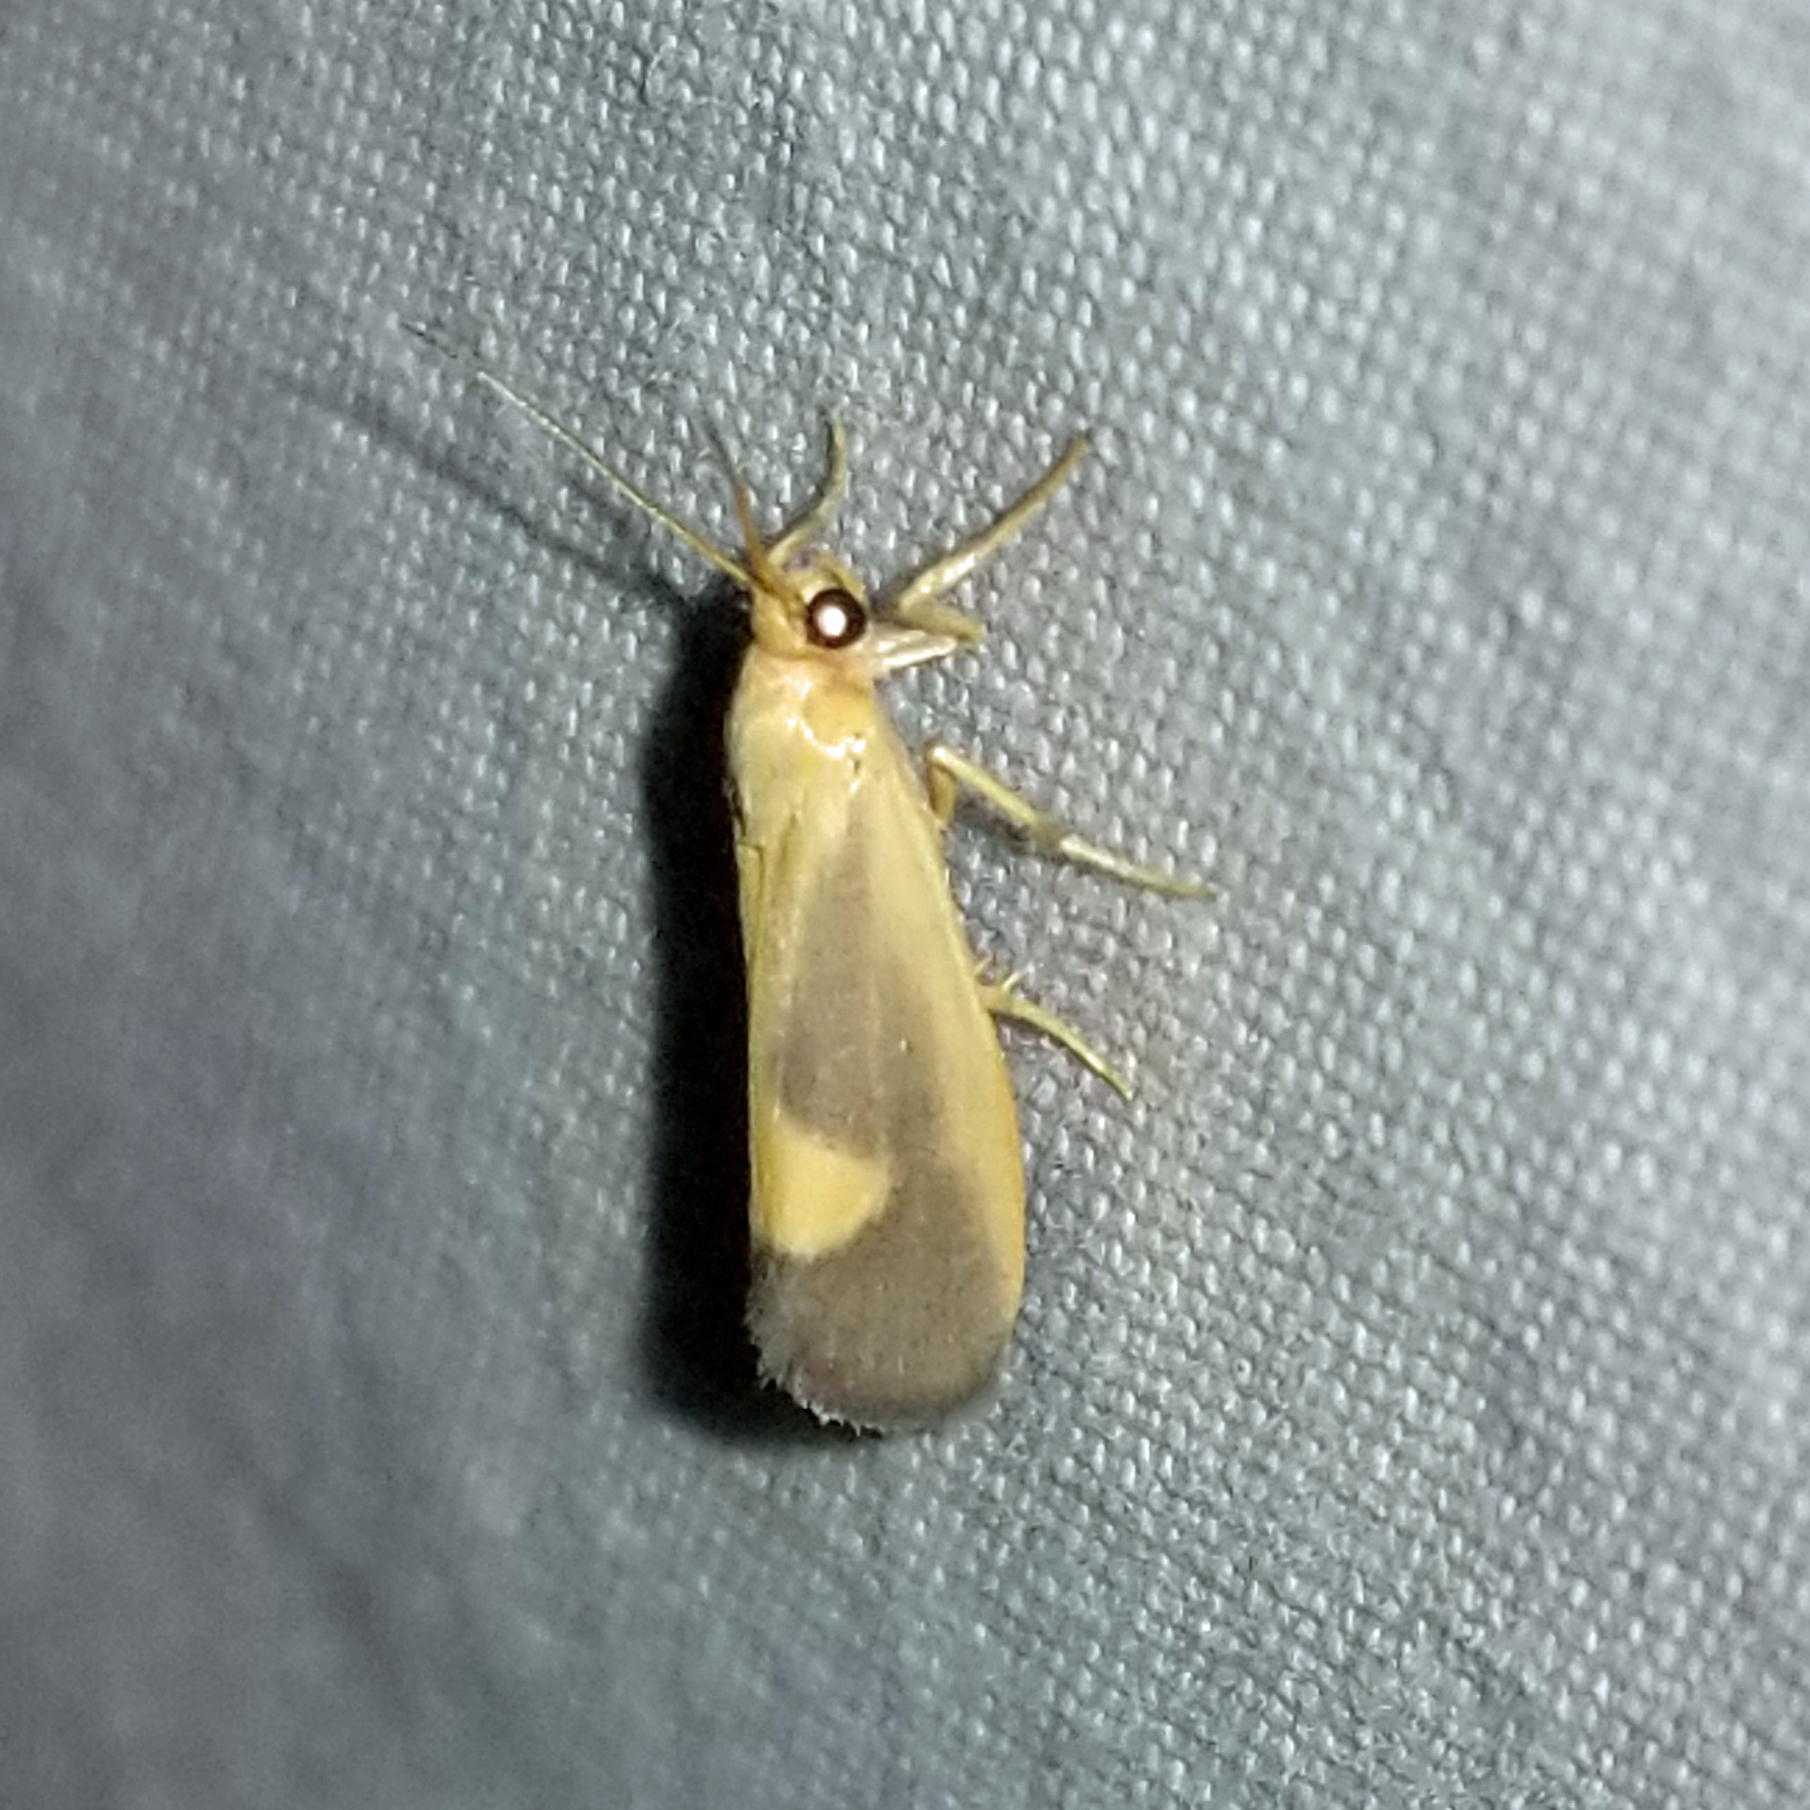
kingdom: Animalia
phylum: Arthropoda
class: Insecta
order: Lepidoptera
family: Erebidae
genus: Cisthene
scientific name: Cisthene plumbea
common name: Lead colored lichen moth
